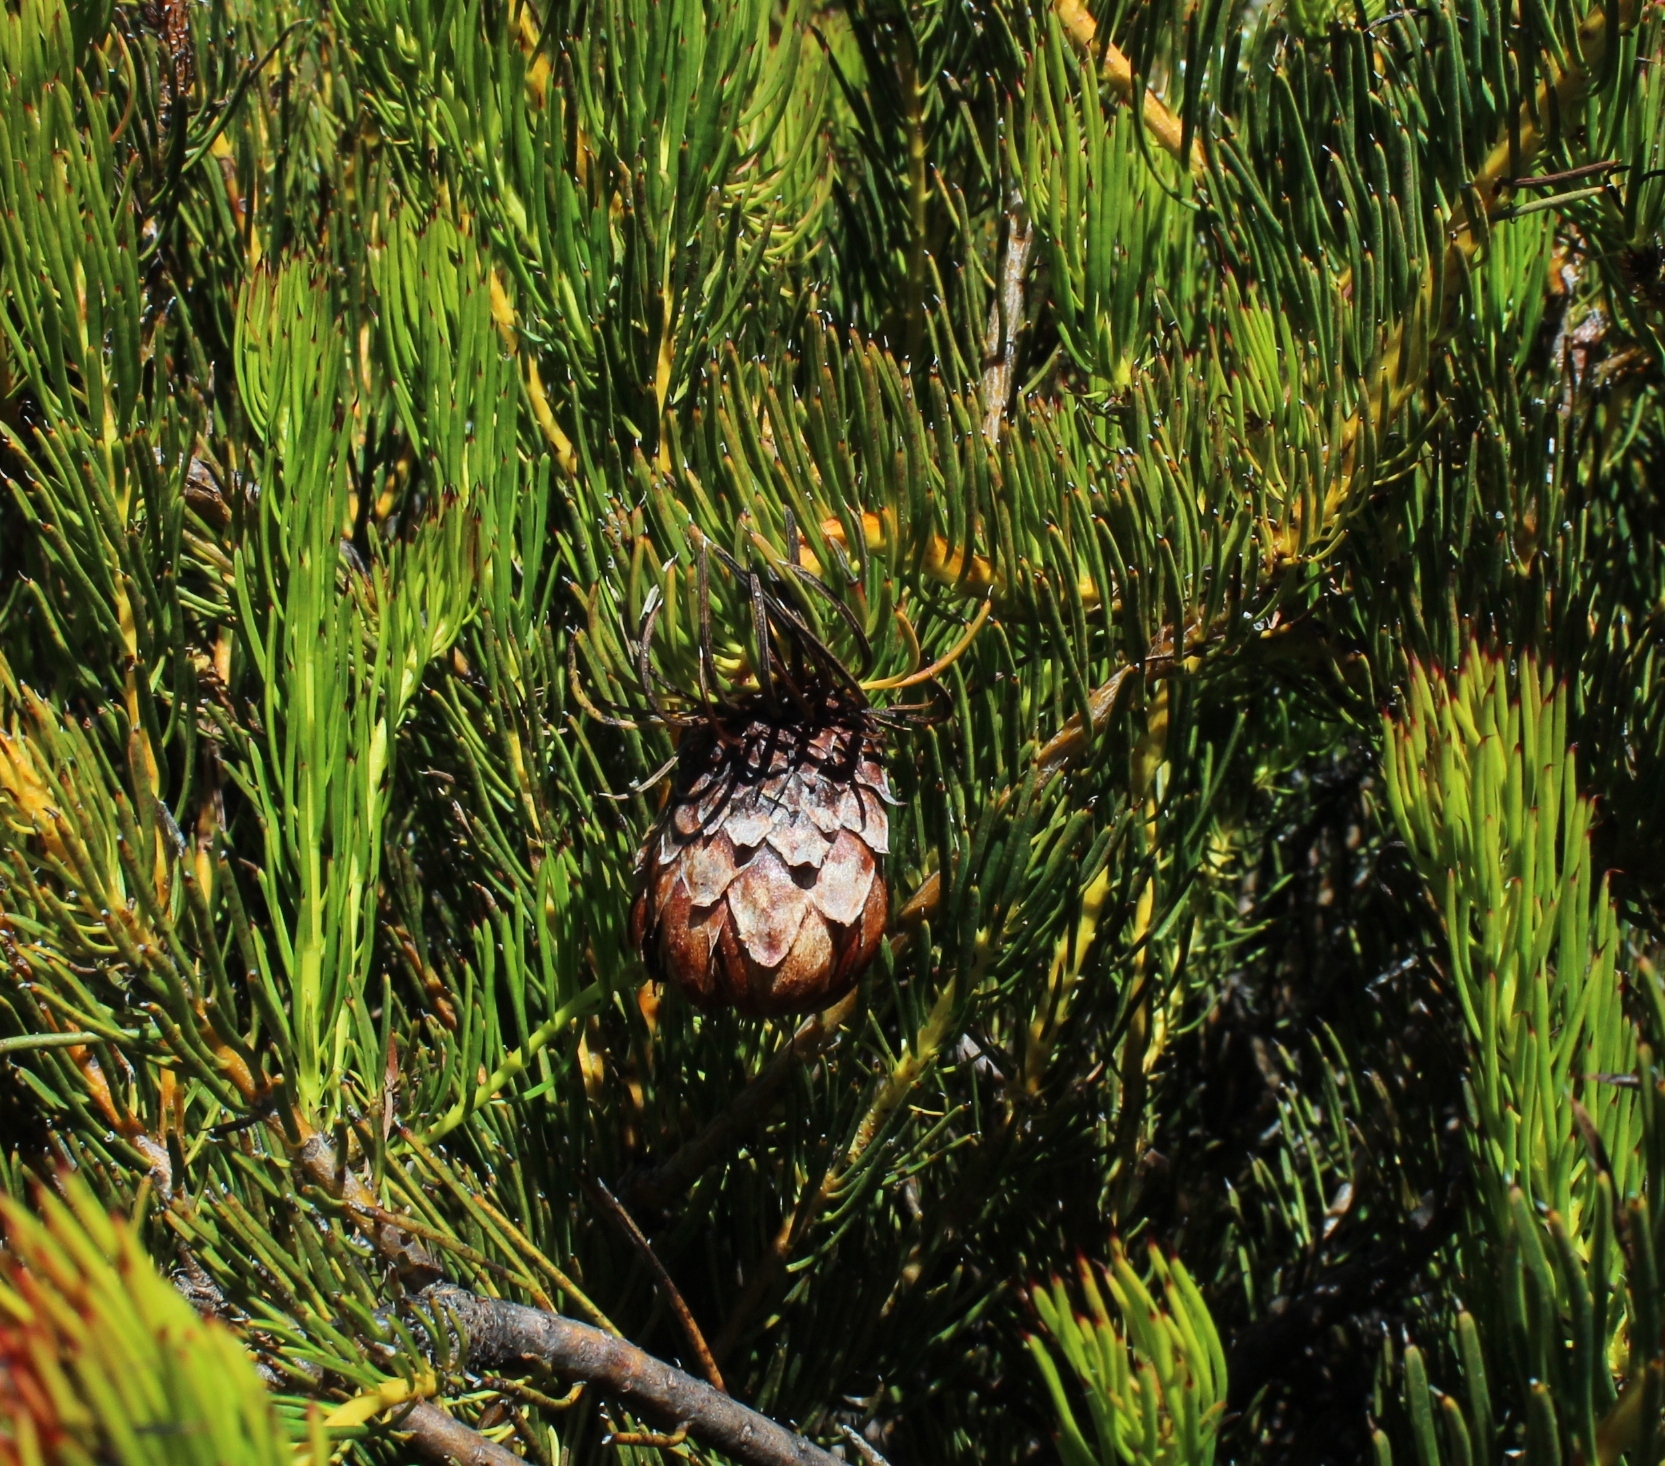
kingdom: Plantae
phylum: Tracheophyta
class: Magnoliopsida
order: Proteales
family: Proteaceae
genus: Protea
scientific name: Protea witzenbergiana
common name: Swan sugarbush
